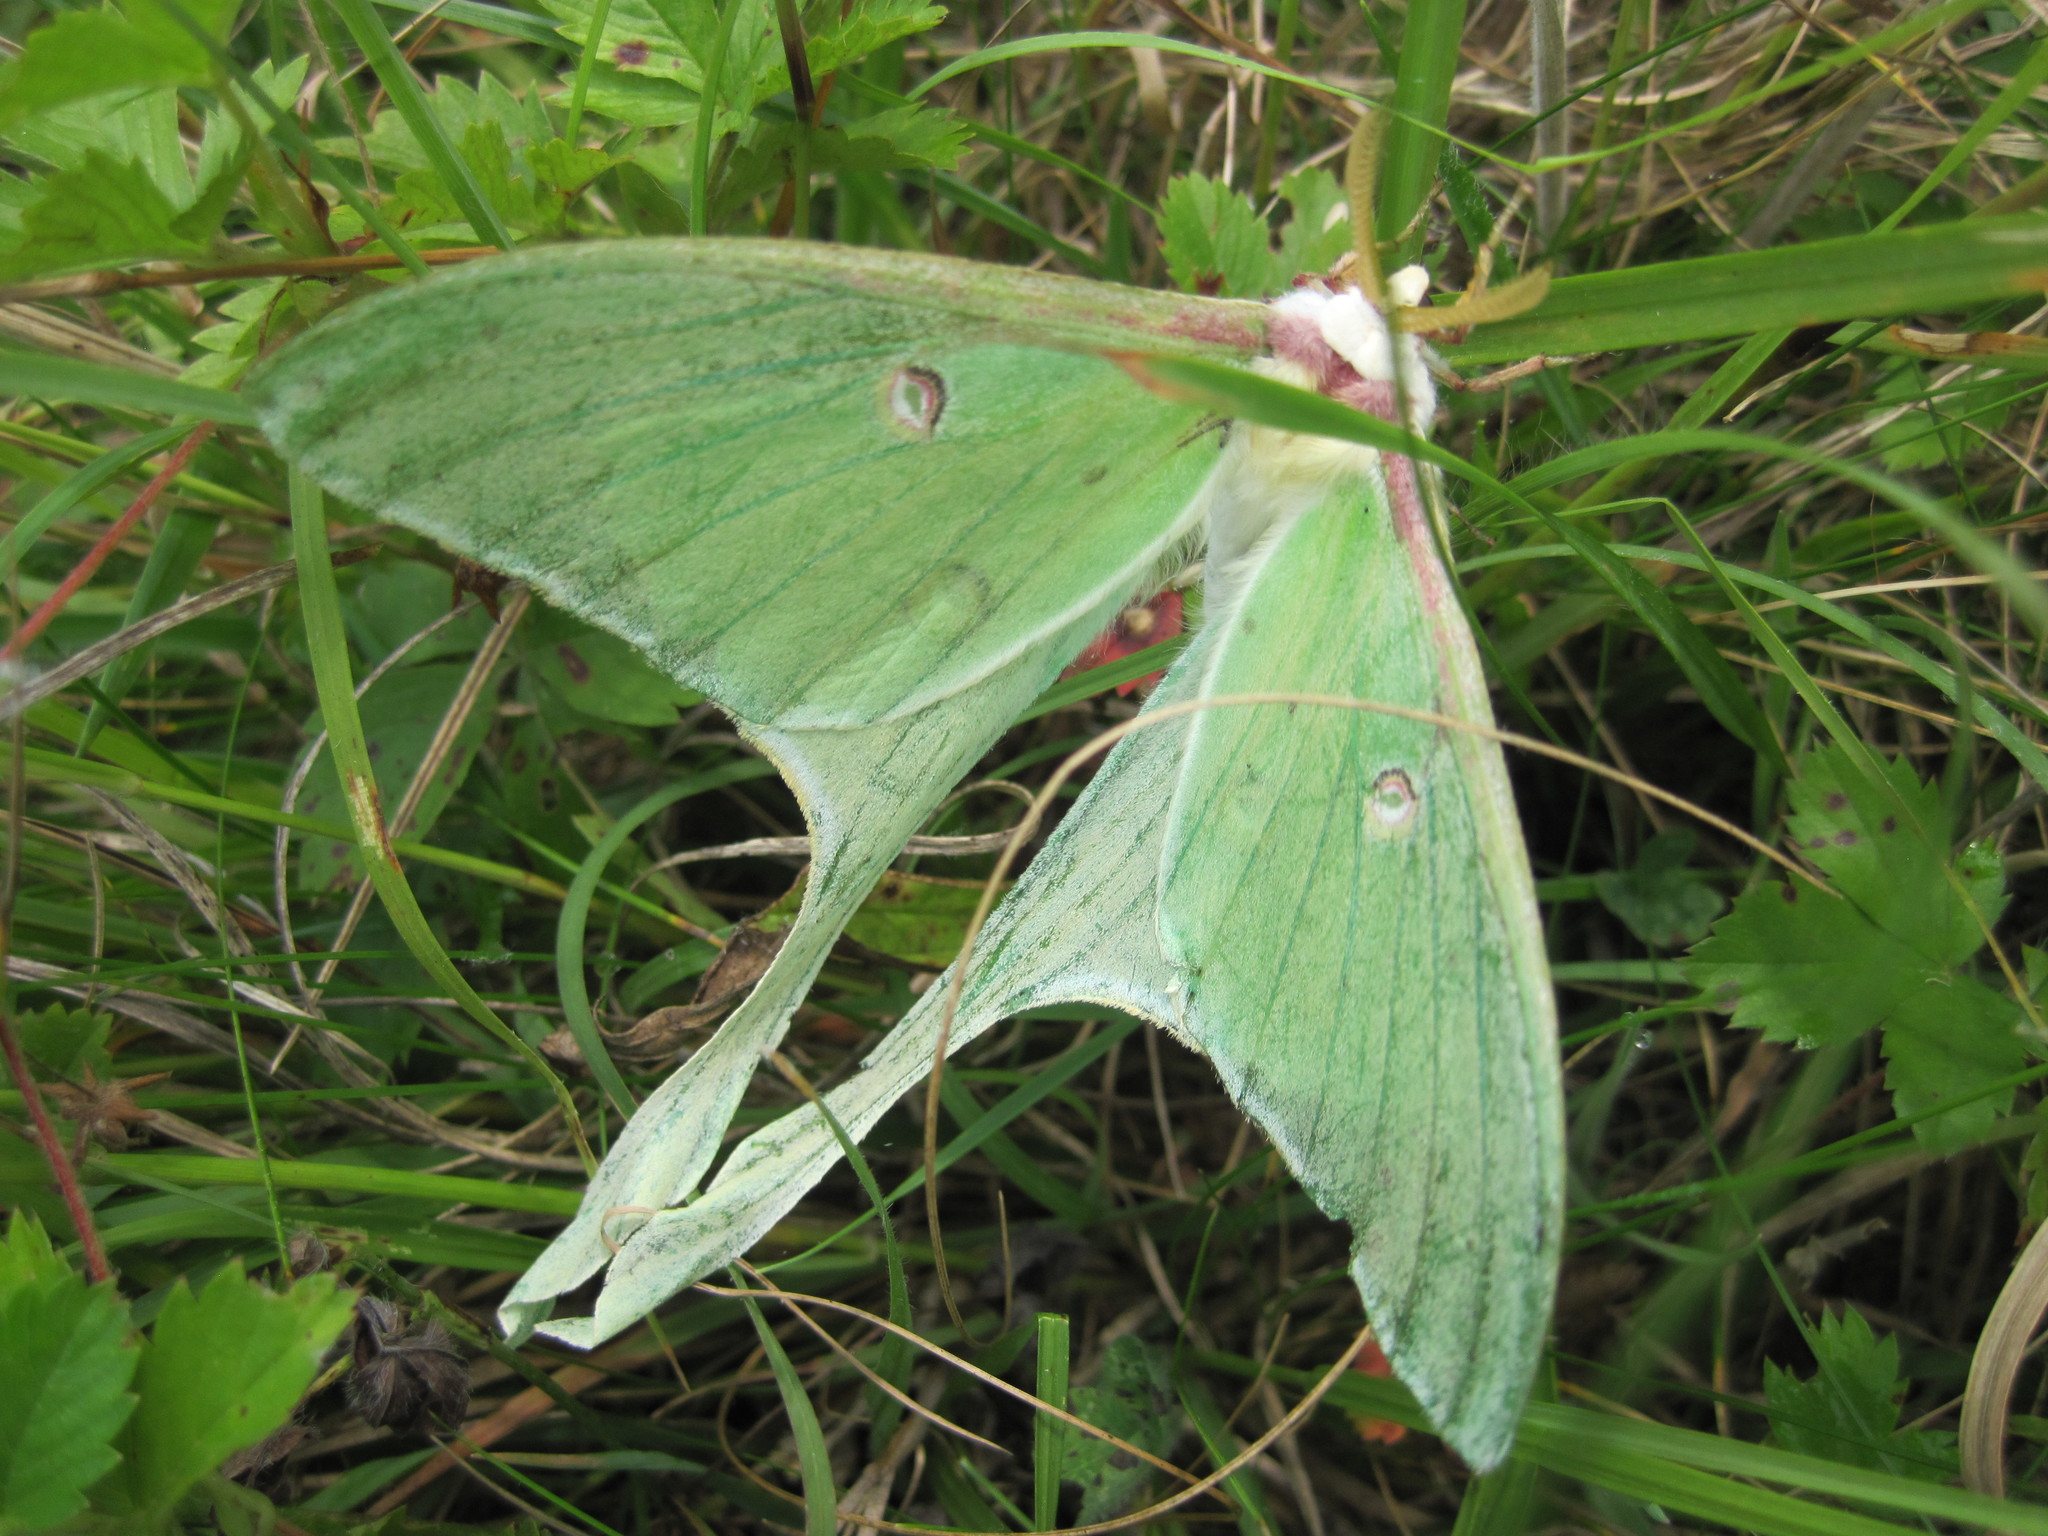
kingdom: Animalia
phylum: Arthropoda
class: Insecta
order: Lepidoptera
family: Saturniidae
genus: Actias
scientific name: Actias luna
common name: Luna moth
